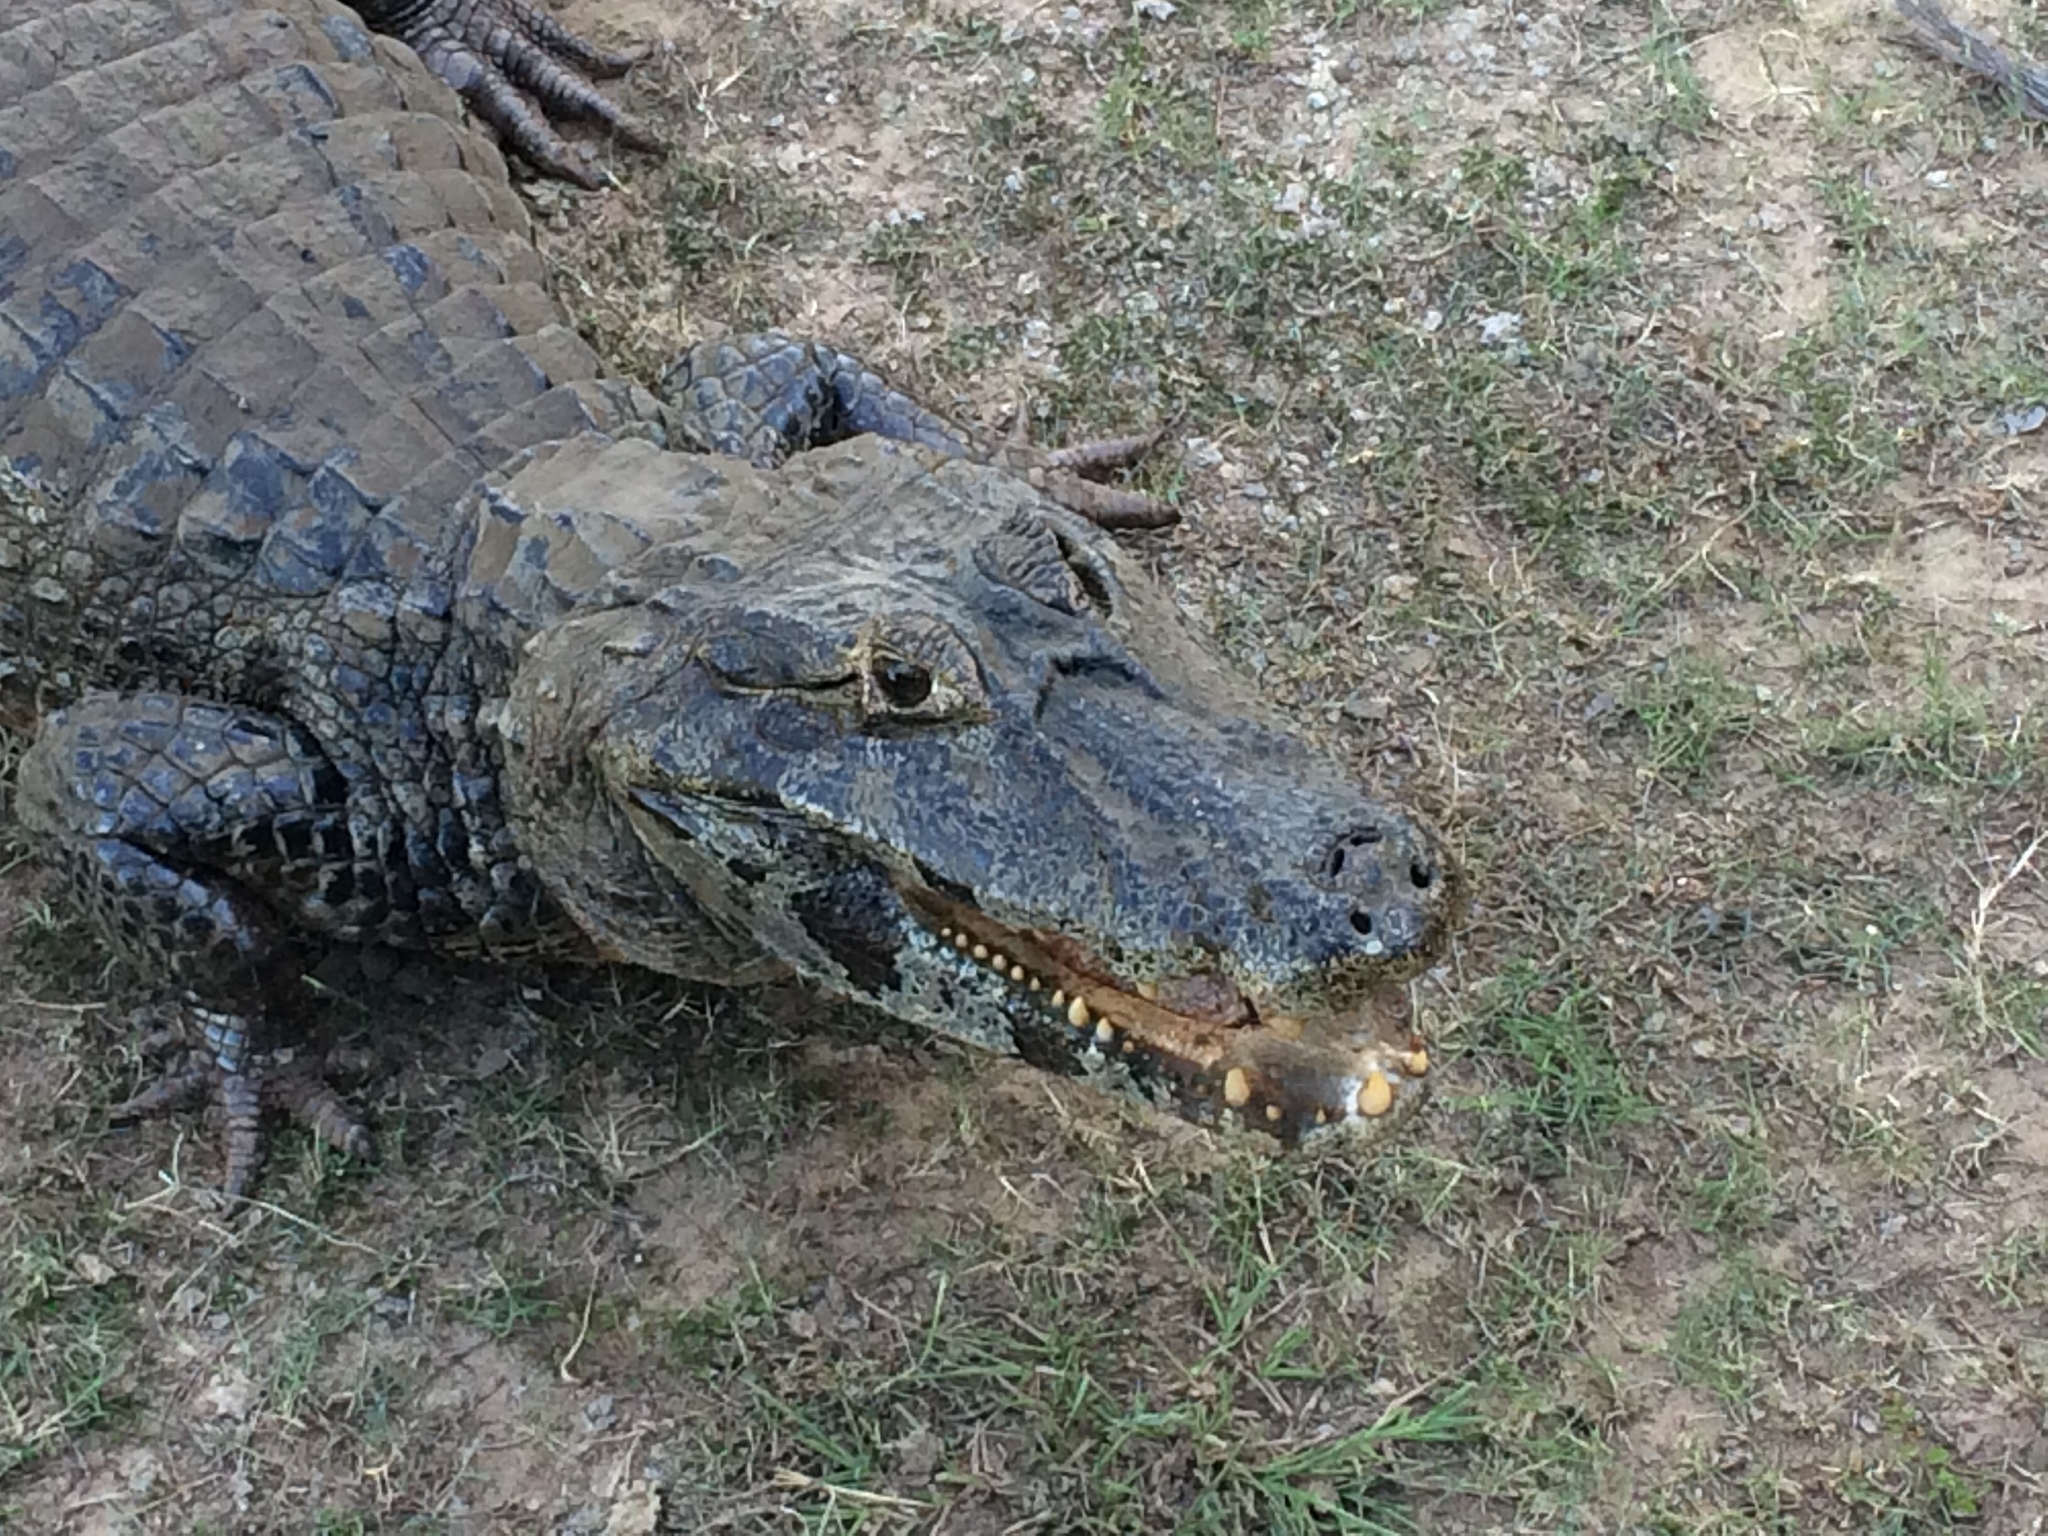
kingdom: Animalia
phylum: Chordata
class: Crocodylia
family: Alligatoridae
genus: Caiman
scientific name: Caiman yacare
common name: Yacare caiman
